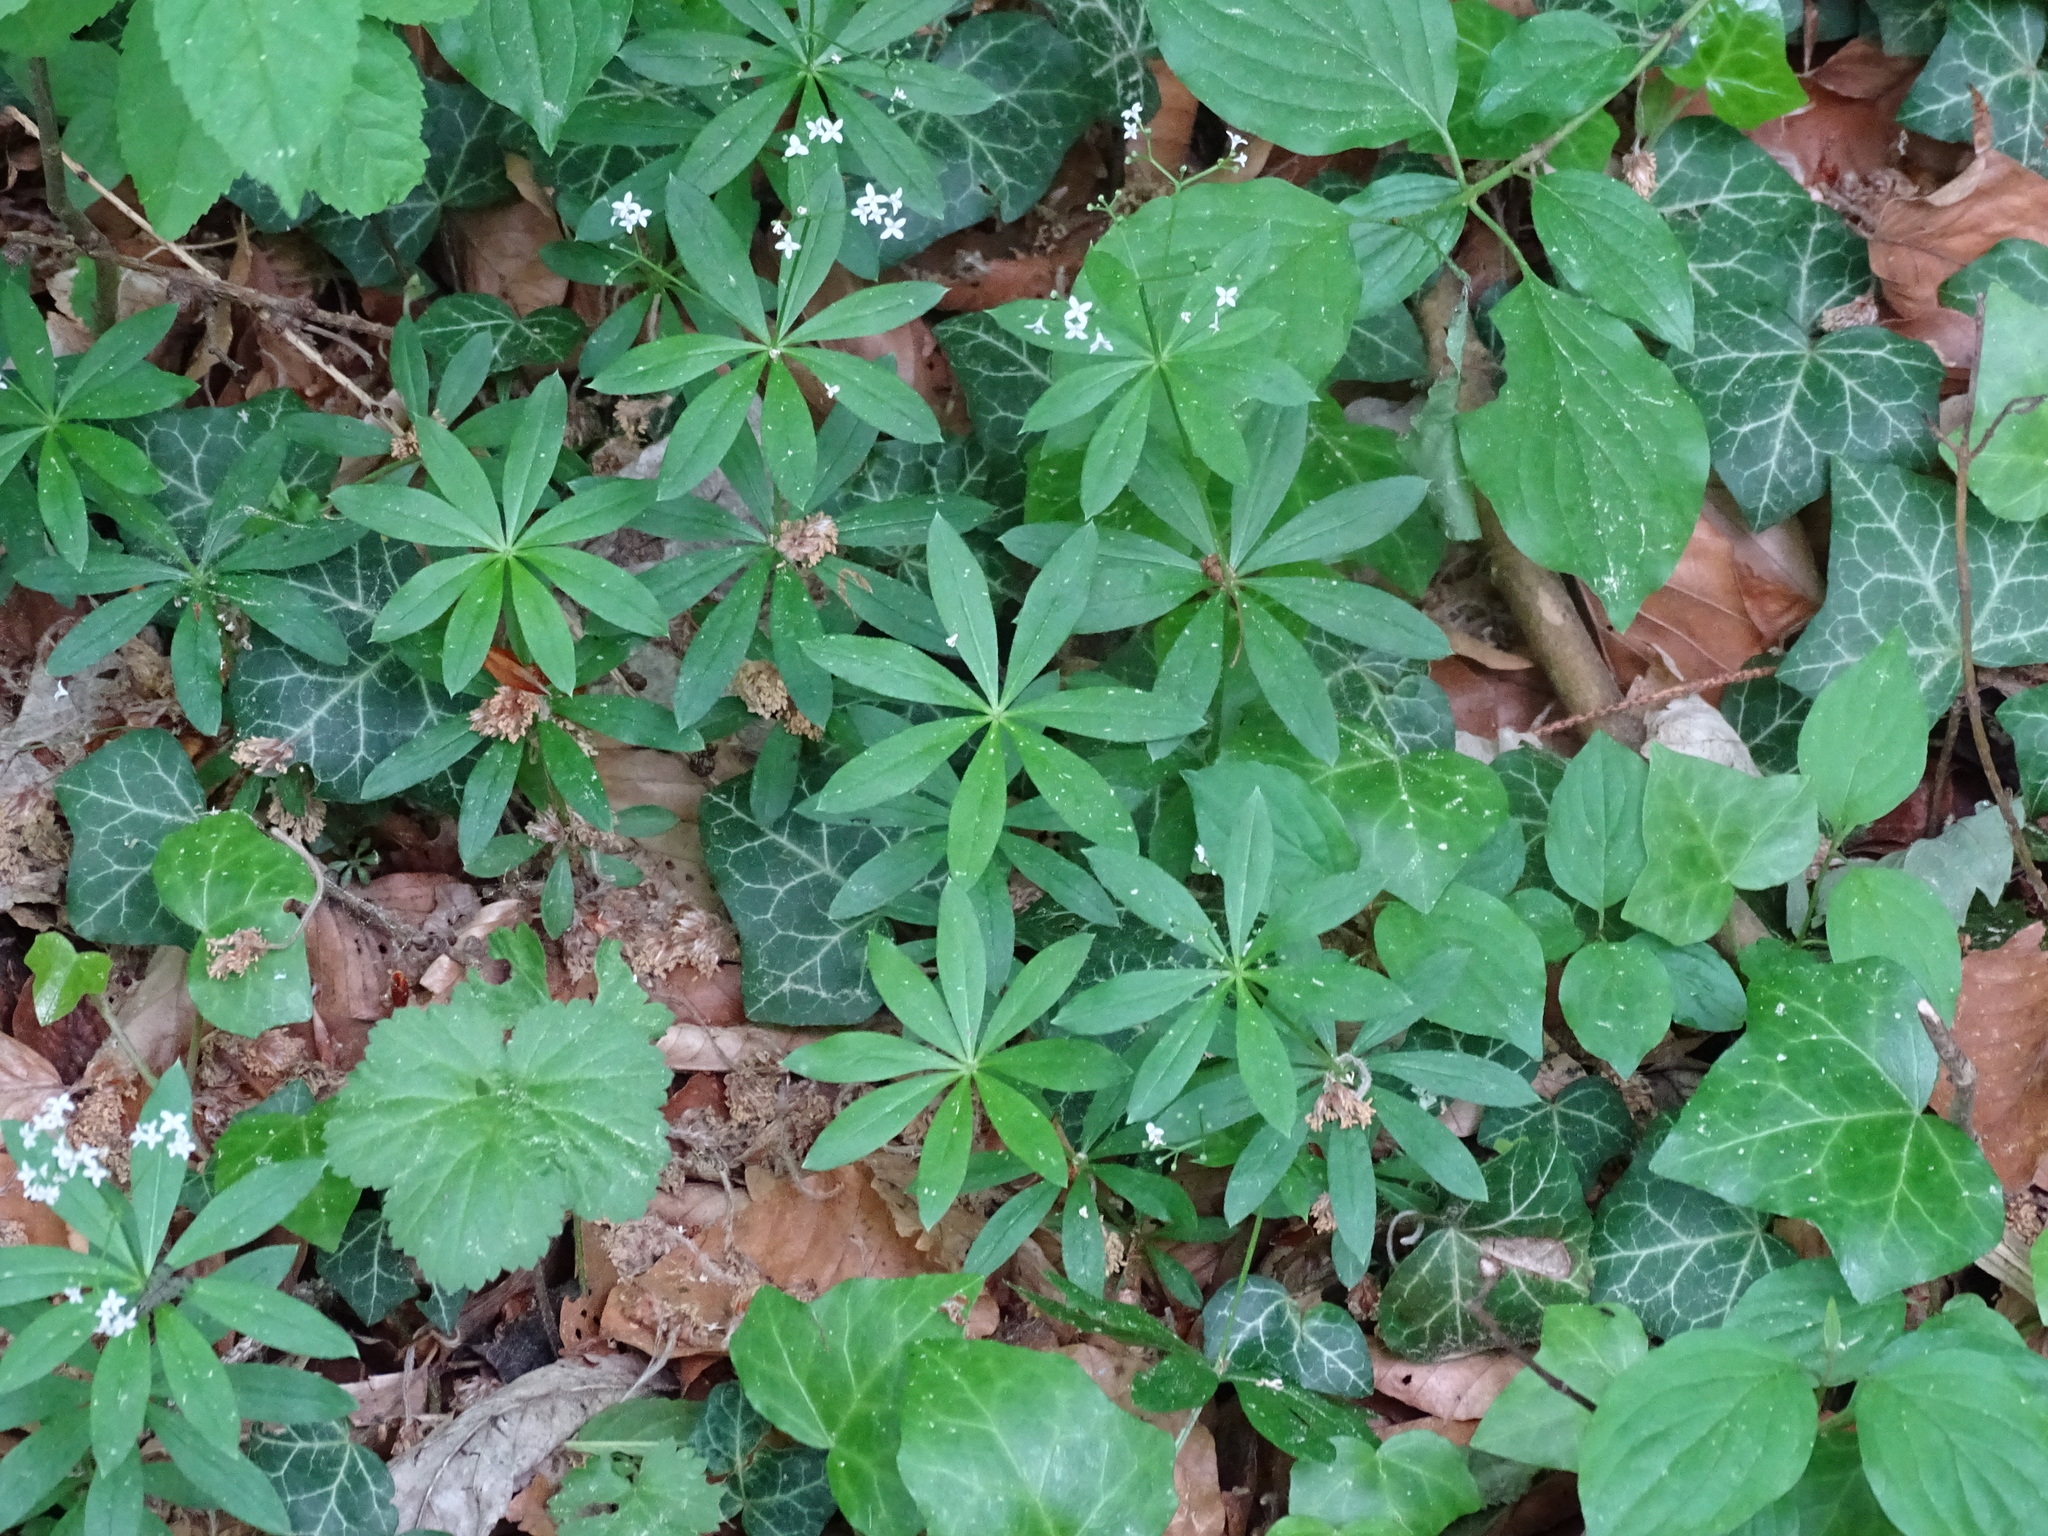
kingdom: Plantae
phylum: Tracheophyta
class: Magnoliopsida
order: Gentianales
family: Rubiaceae
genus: Galium
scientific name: Galium odoratum
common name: Sweet woodruff
